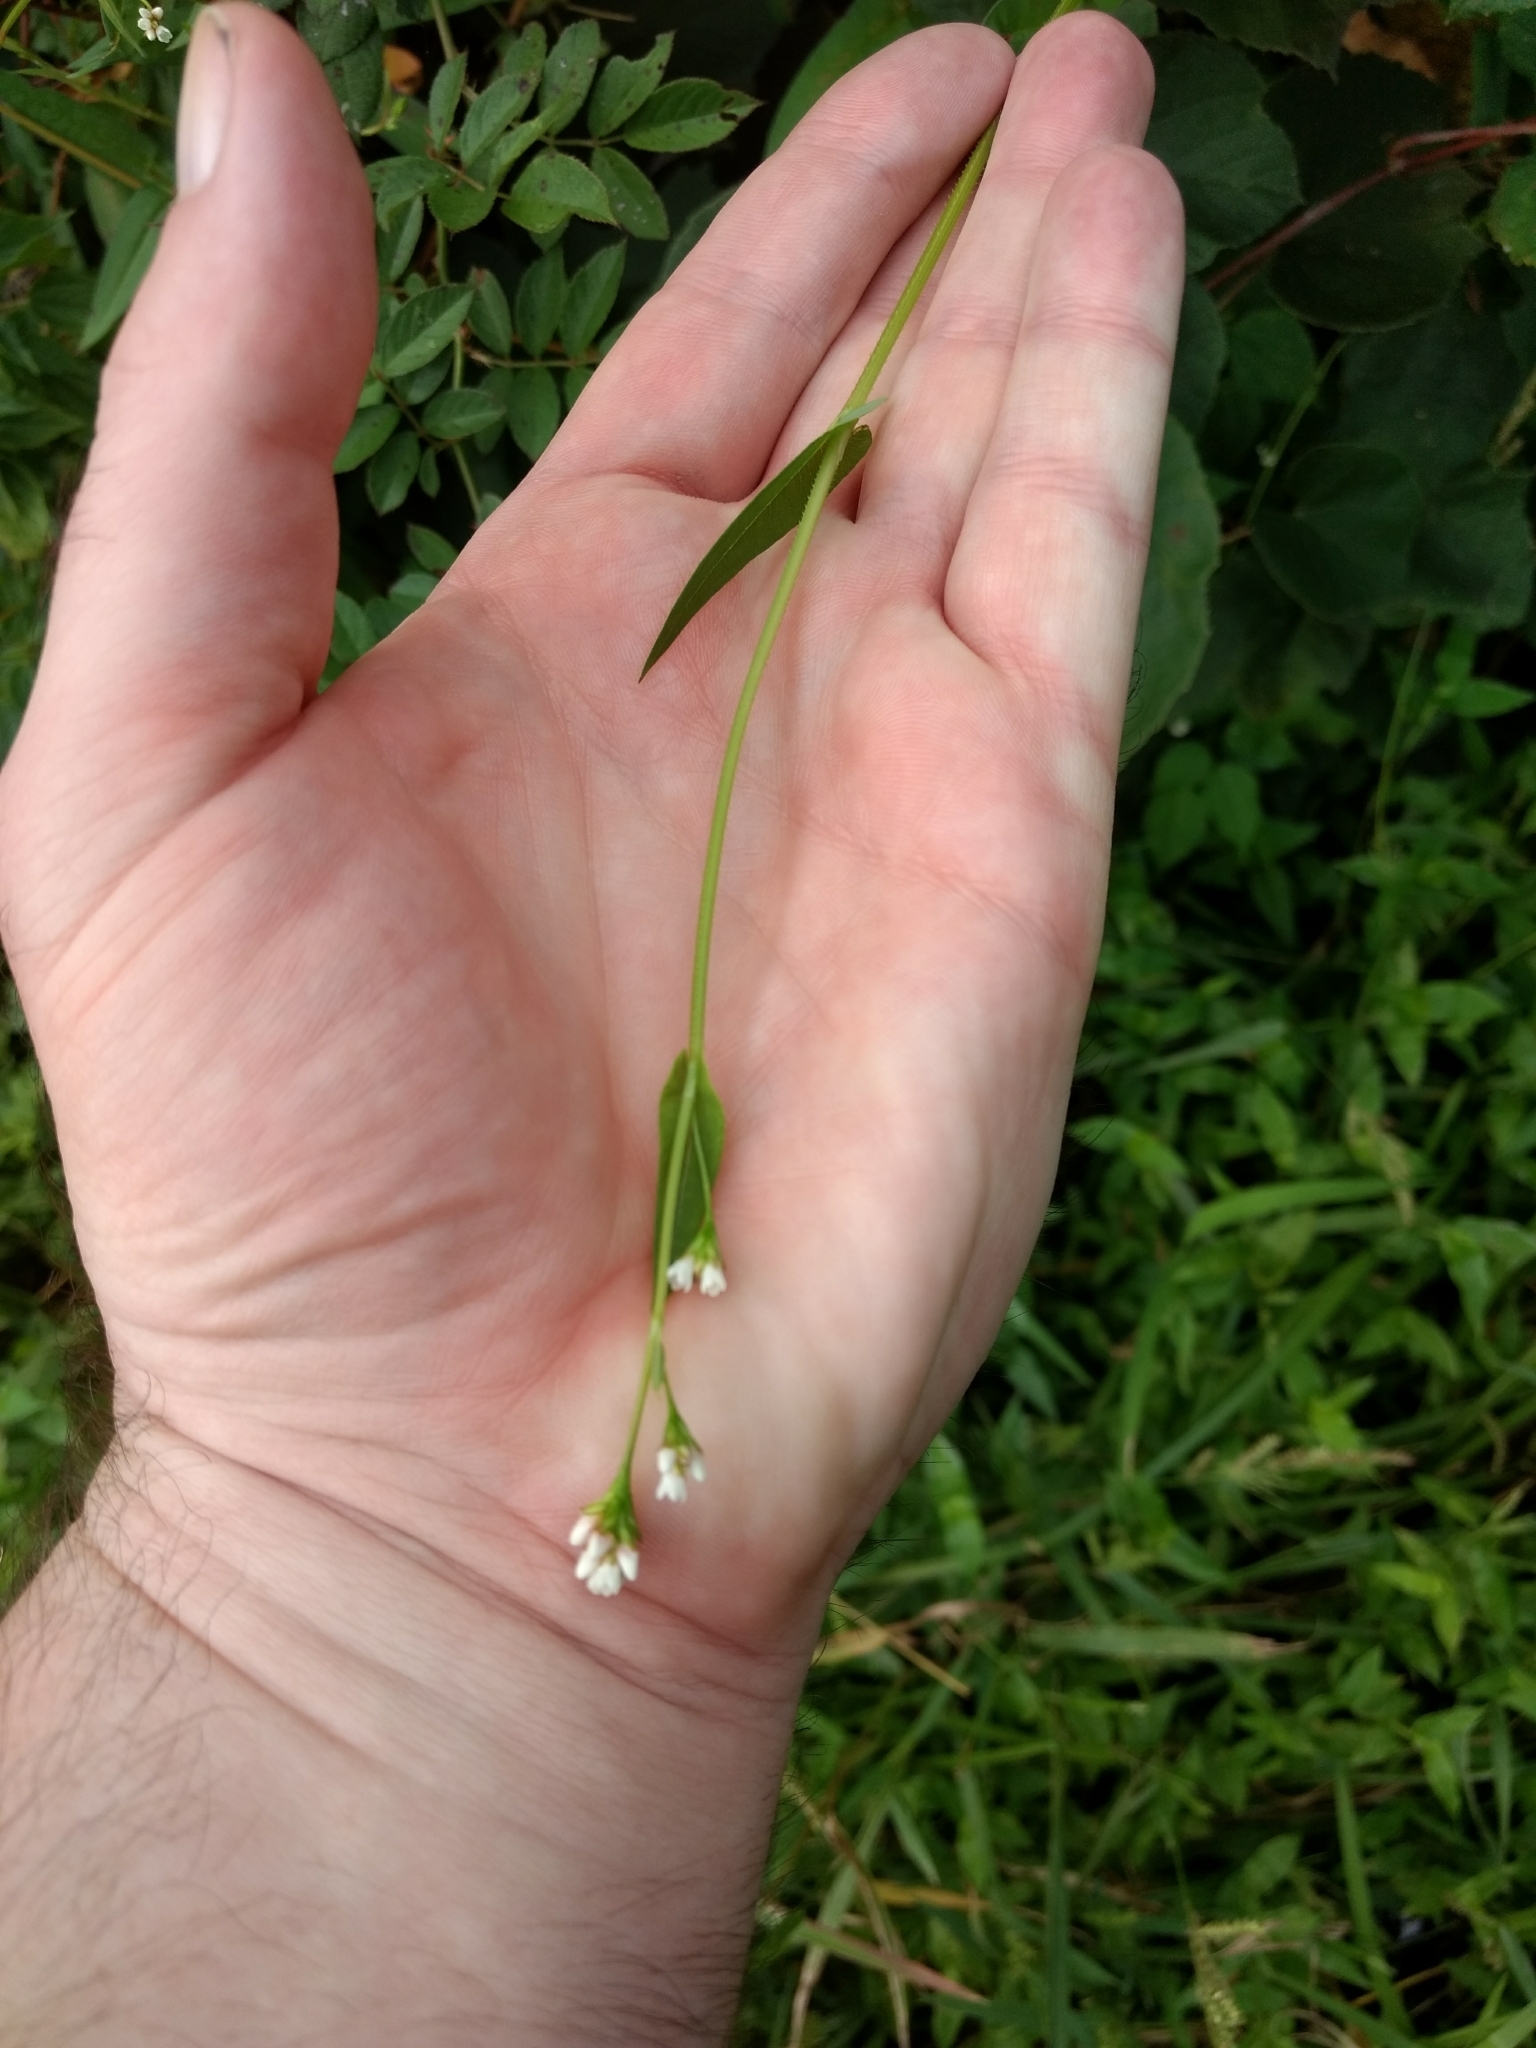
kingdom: Plantae
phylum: Tracheophyta
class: Magnoliopsida
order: Caryophyllales
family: Polygonaceae
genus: Persicaria
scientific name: Persicaria sagittata
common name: American tearthumb
